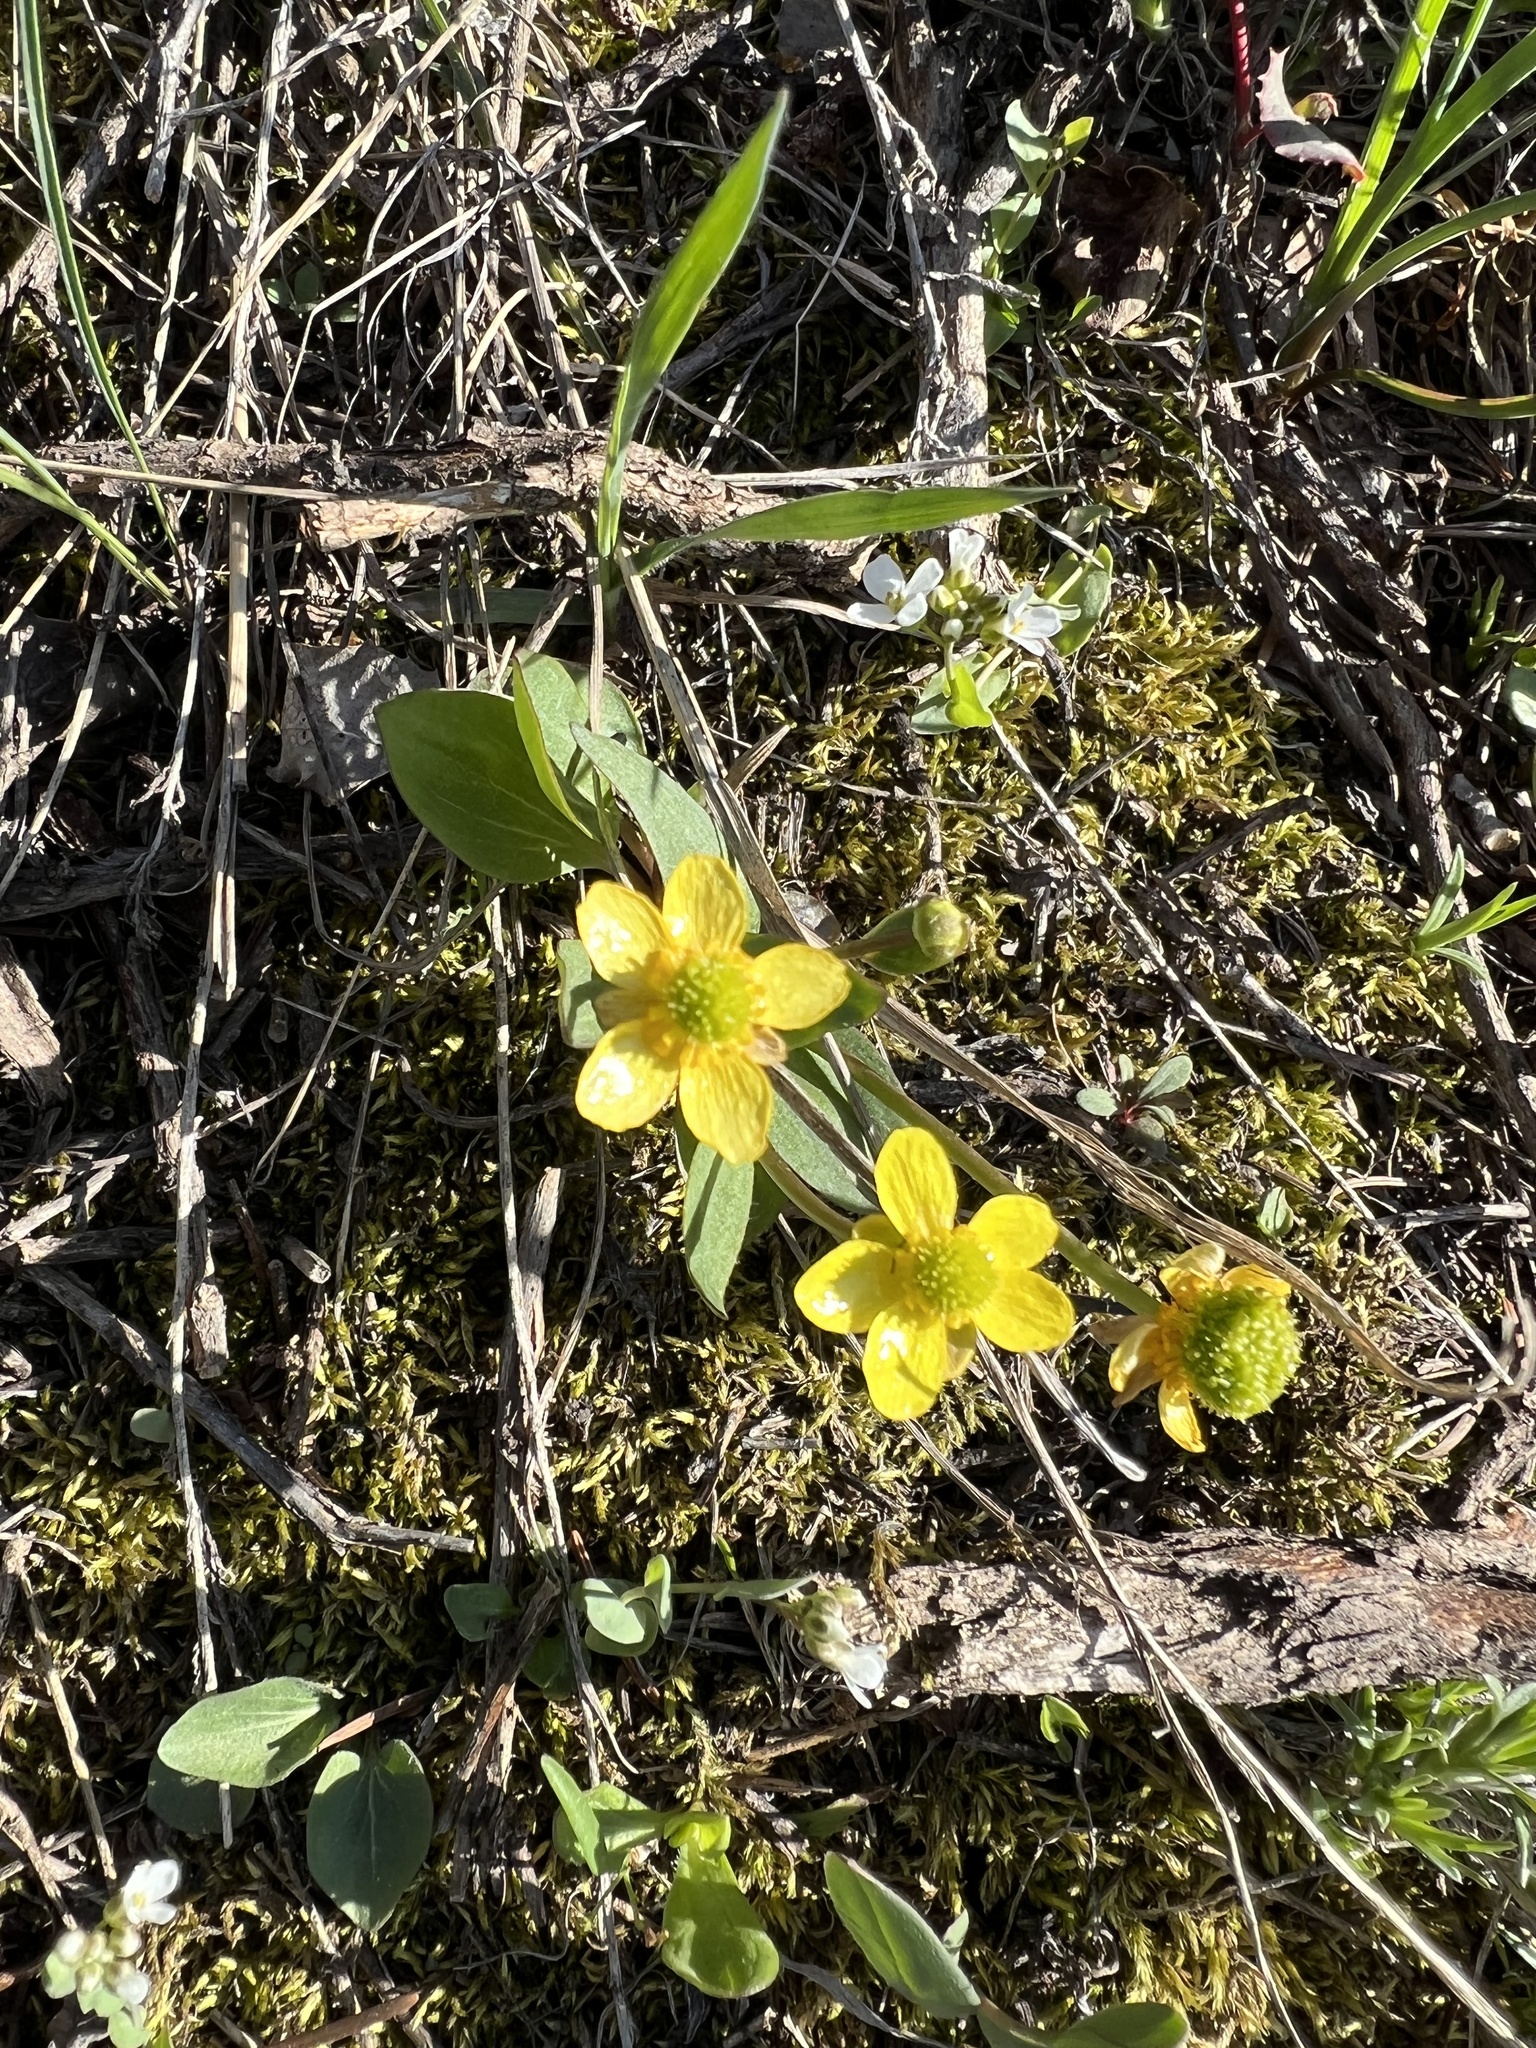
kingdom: Plantae
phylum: Tracheophyta
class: Magnoliopsida
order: Ranunculales
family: Ranunculaceae
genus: Ranunculus
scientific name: Ranunculus glaberrimus
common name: Sagebrush buttercup
